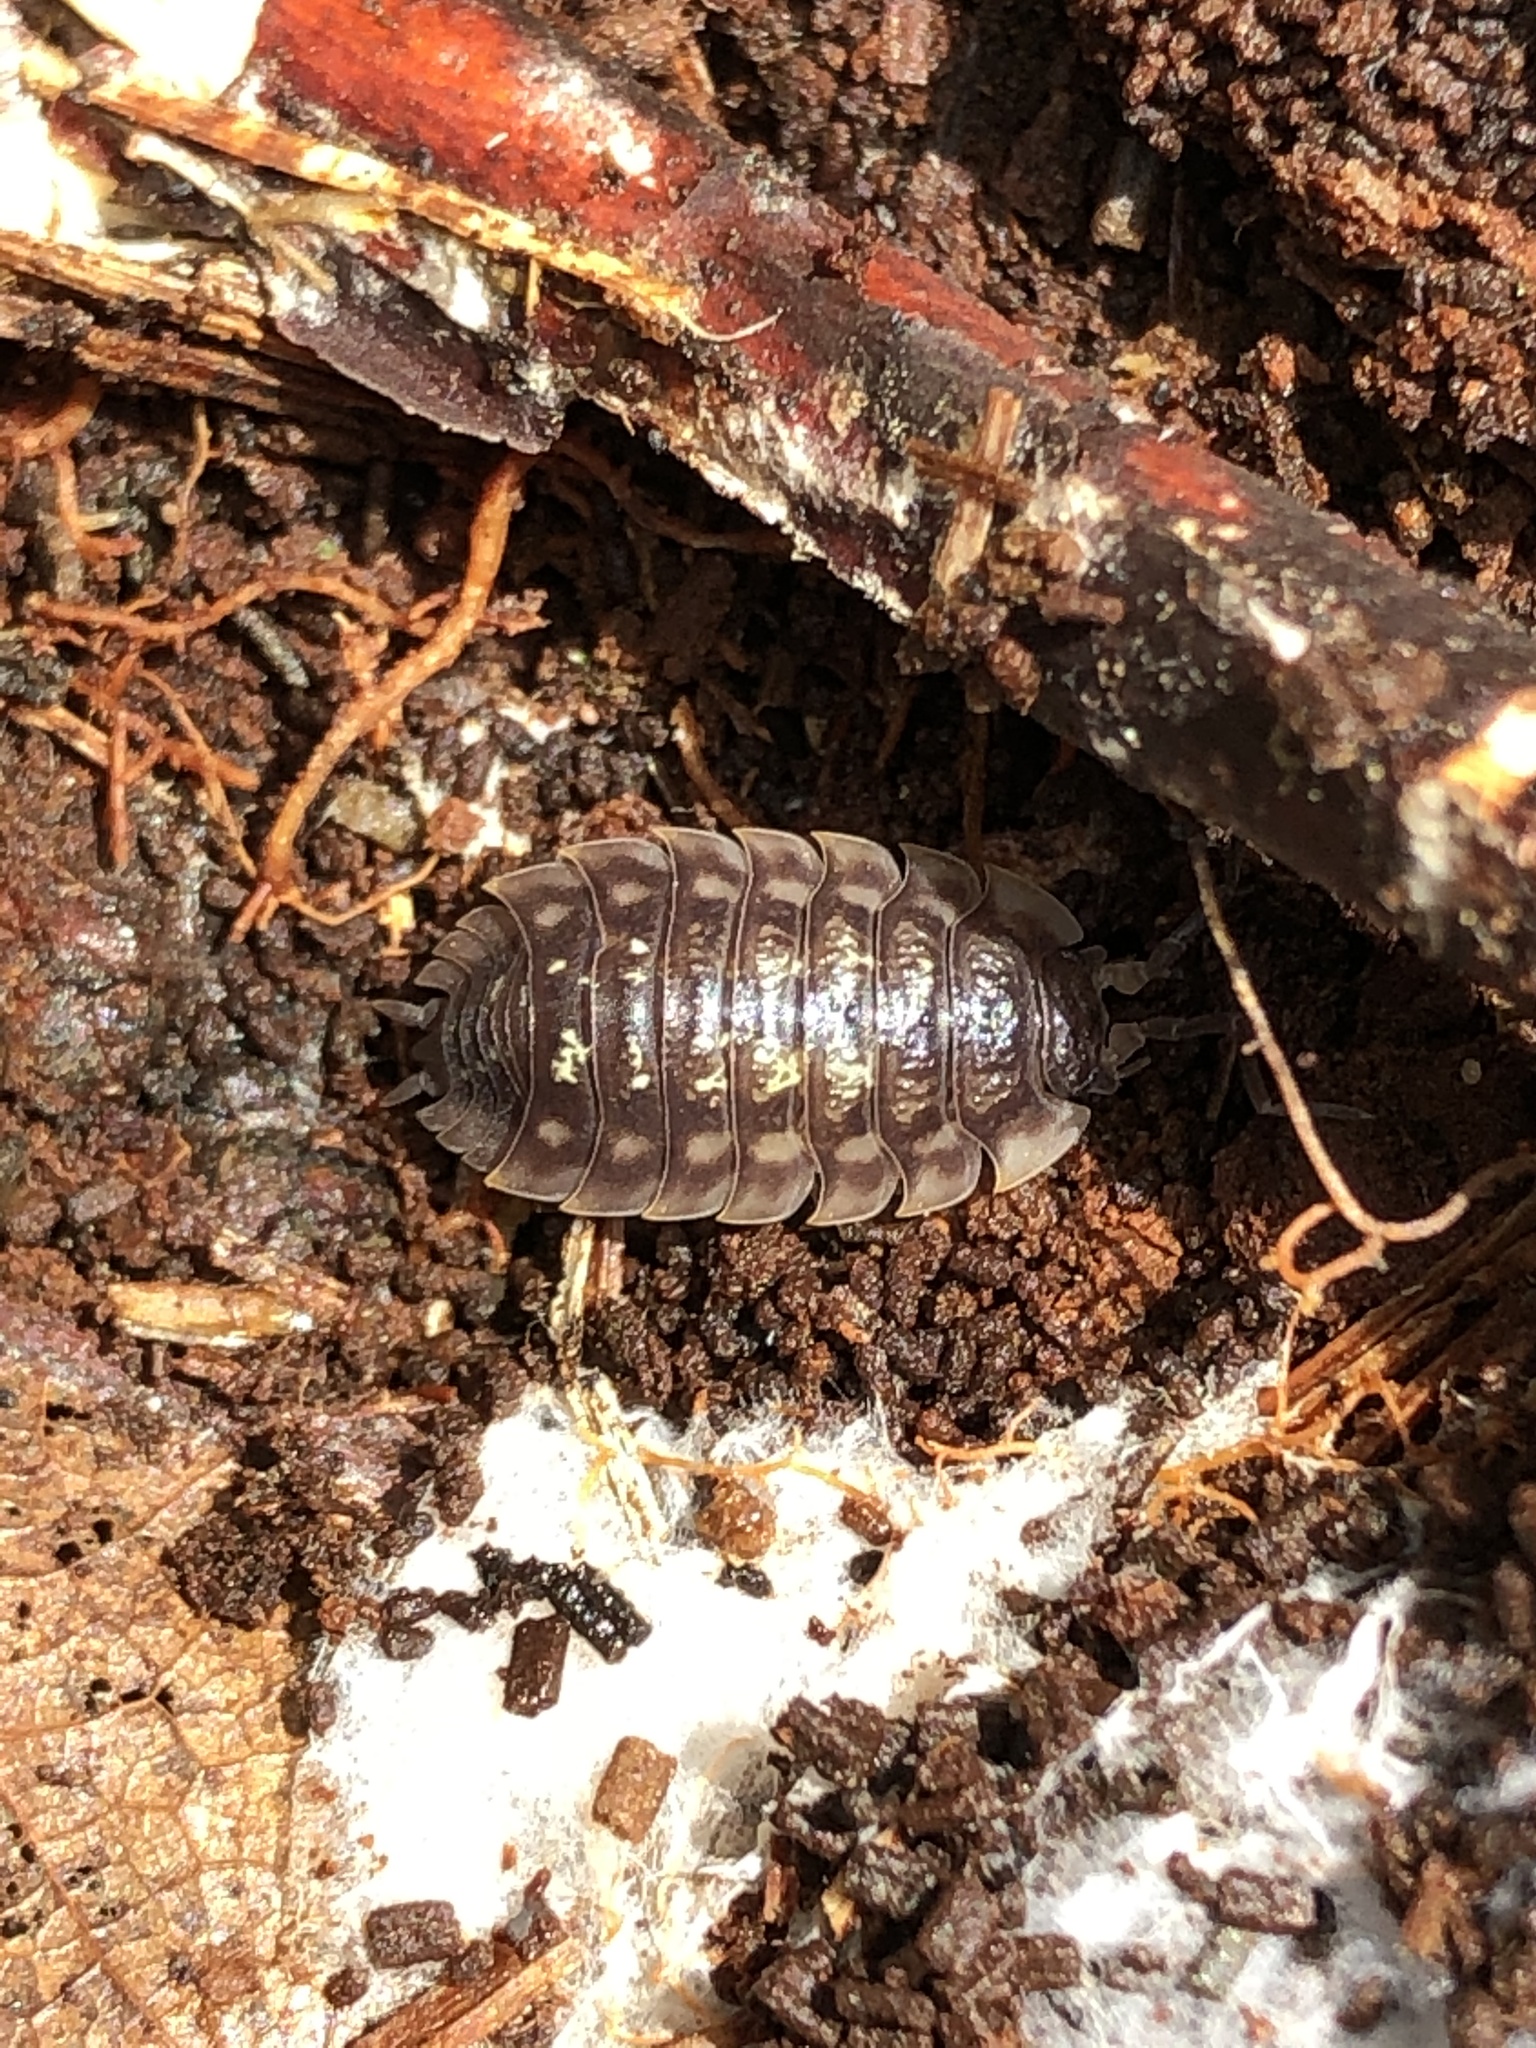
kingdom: Animalia
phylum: Arthropoda
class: Malacostraca
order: Isopoda
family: Oniscidae
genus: Oniscus
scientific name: Oniscus asellus
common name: Common shiny woodlouse
